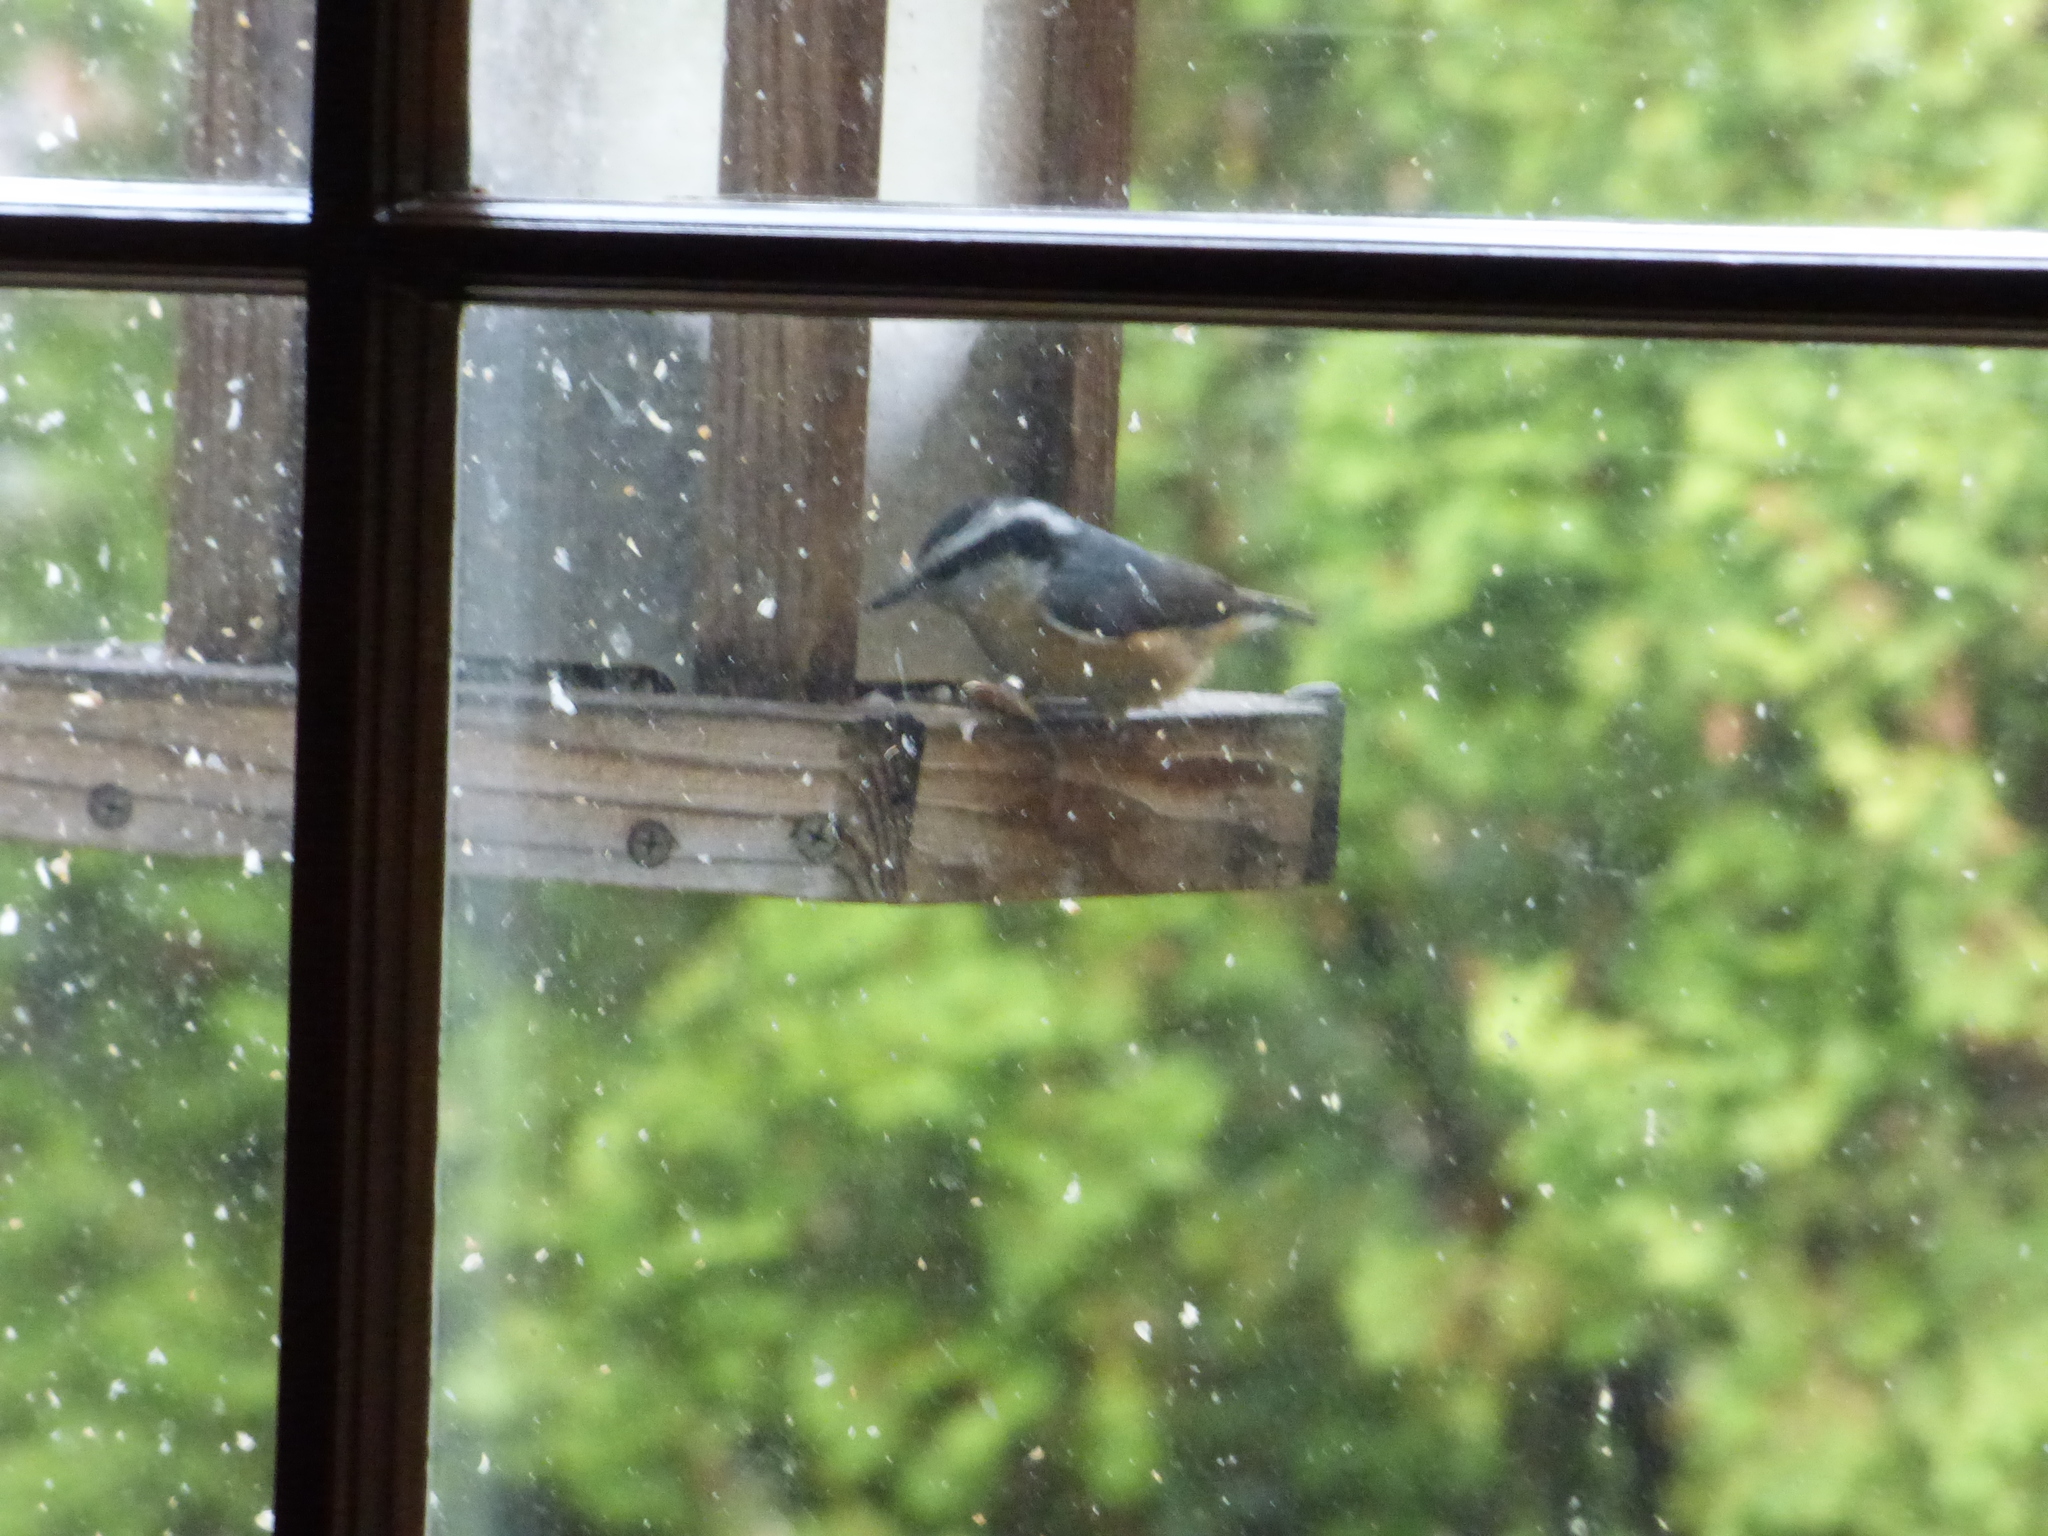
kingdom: Animalia
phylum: Chordata
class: Aves
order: Passeriformes
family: Sittidae
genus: Sitta
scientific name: Sitta canadensis
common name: Red-breasted nuthatch
